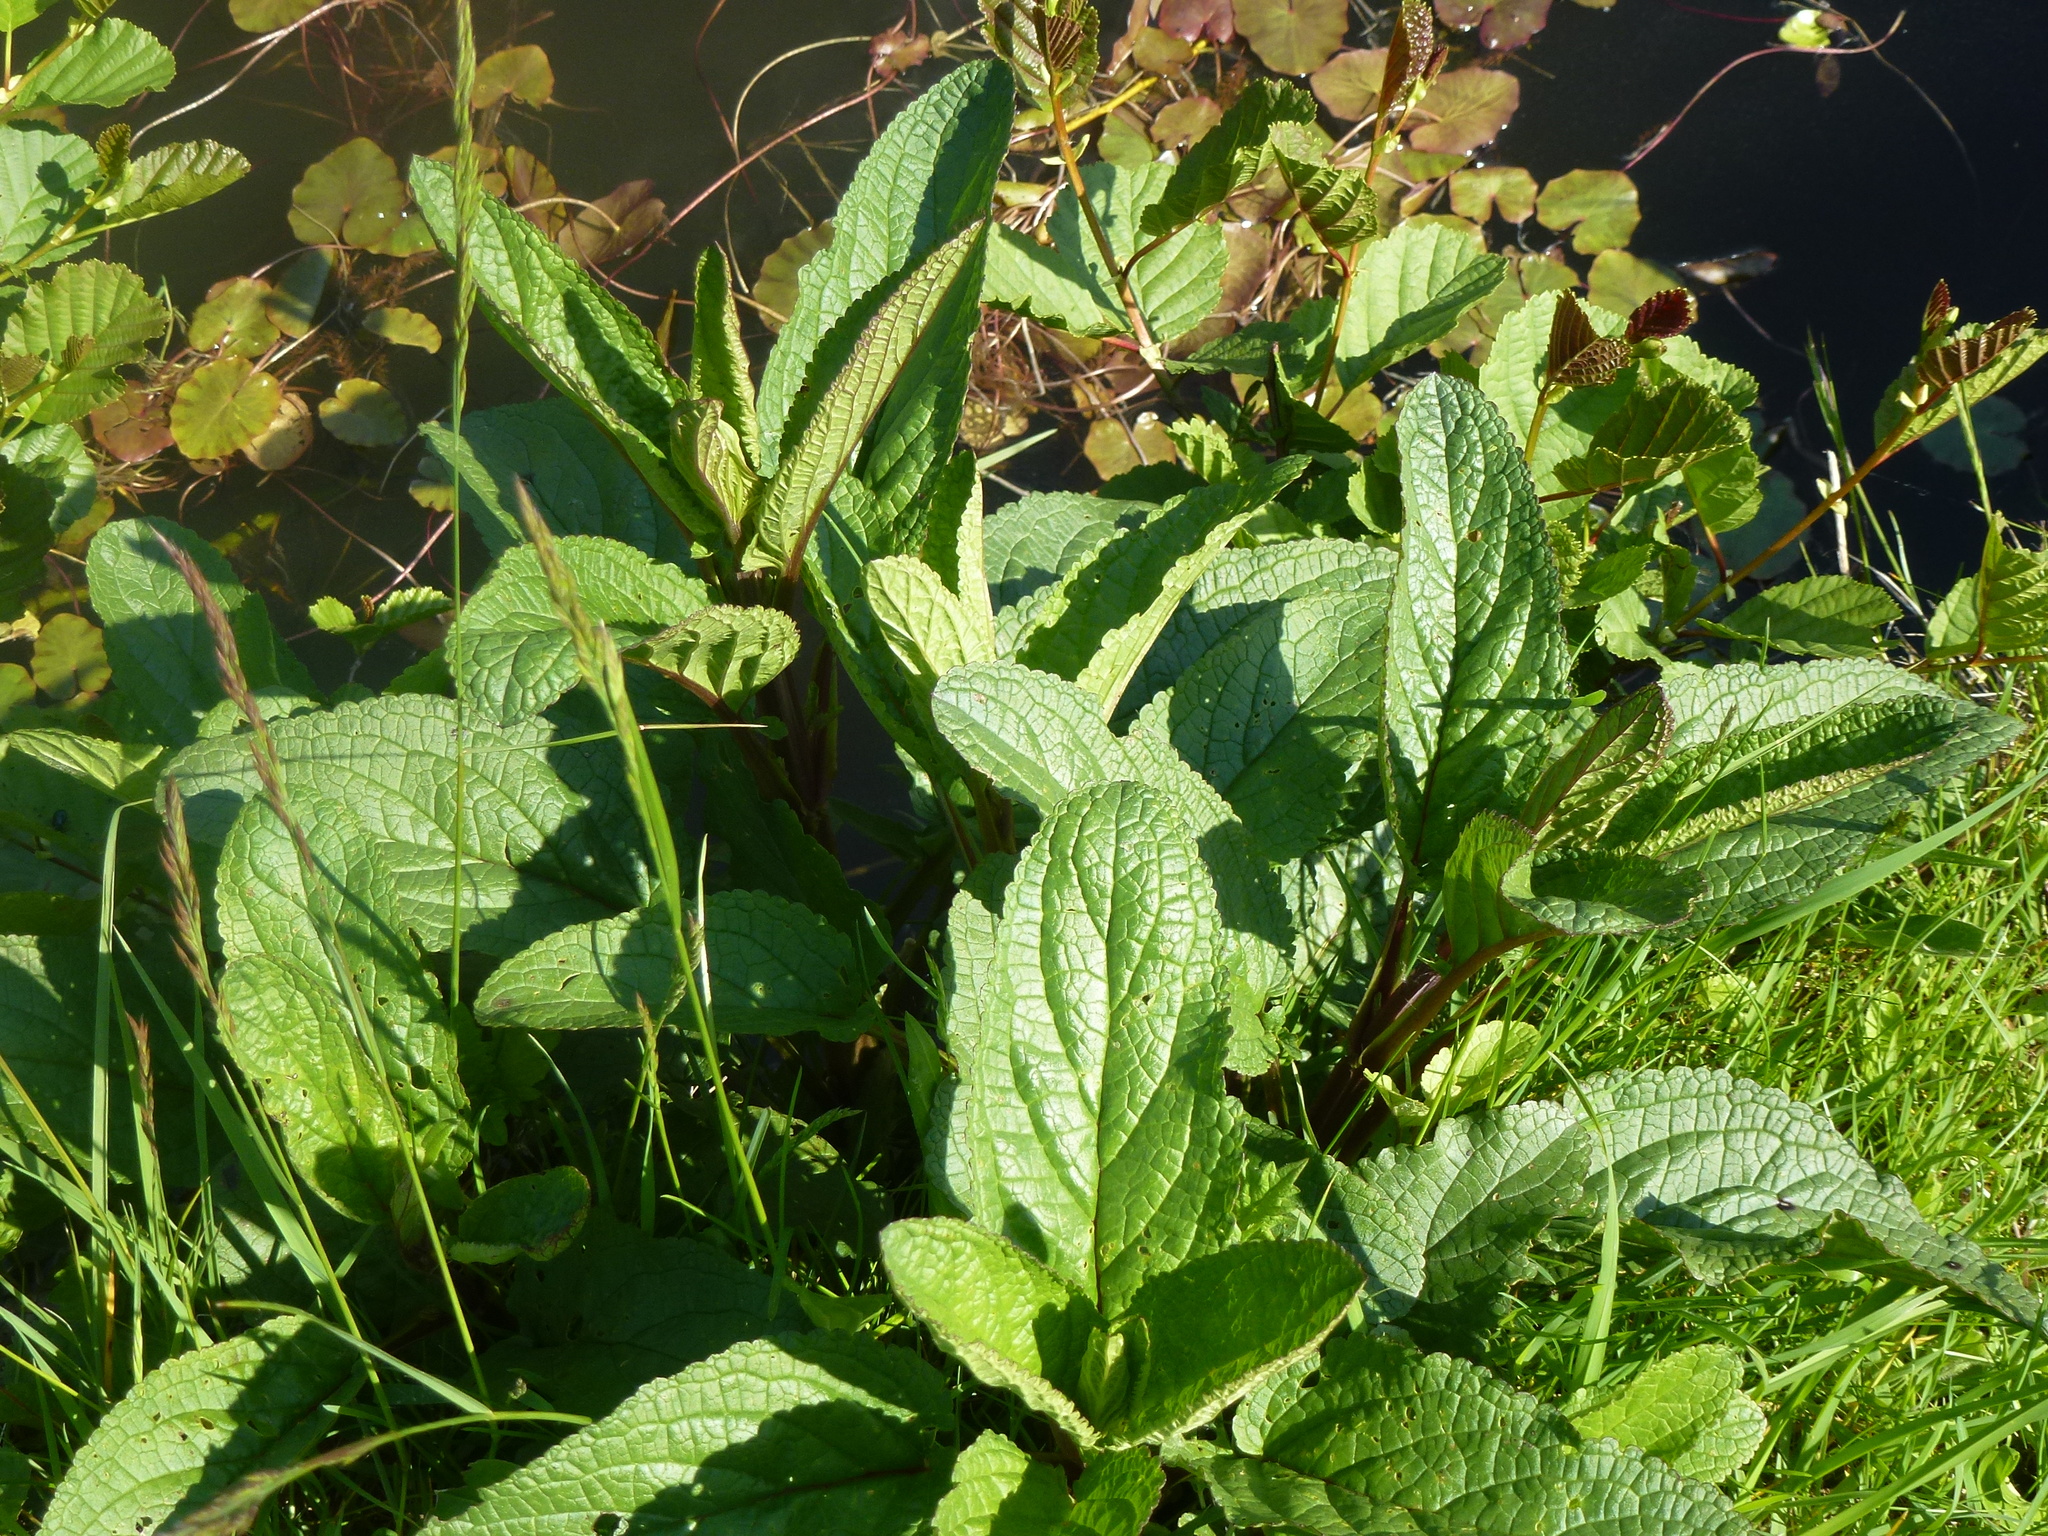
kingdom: Plantae
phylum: Tracheophyta
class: Magnoliopsida
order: Lamiales
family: Scrophulariaceae
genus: Scrophularia
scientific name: Scrophularia auriculata
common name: Water betony
